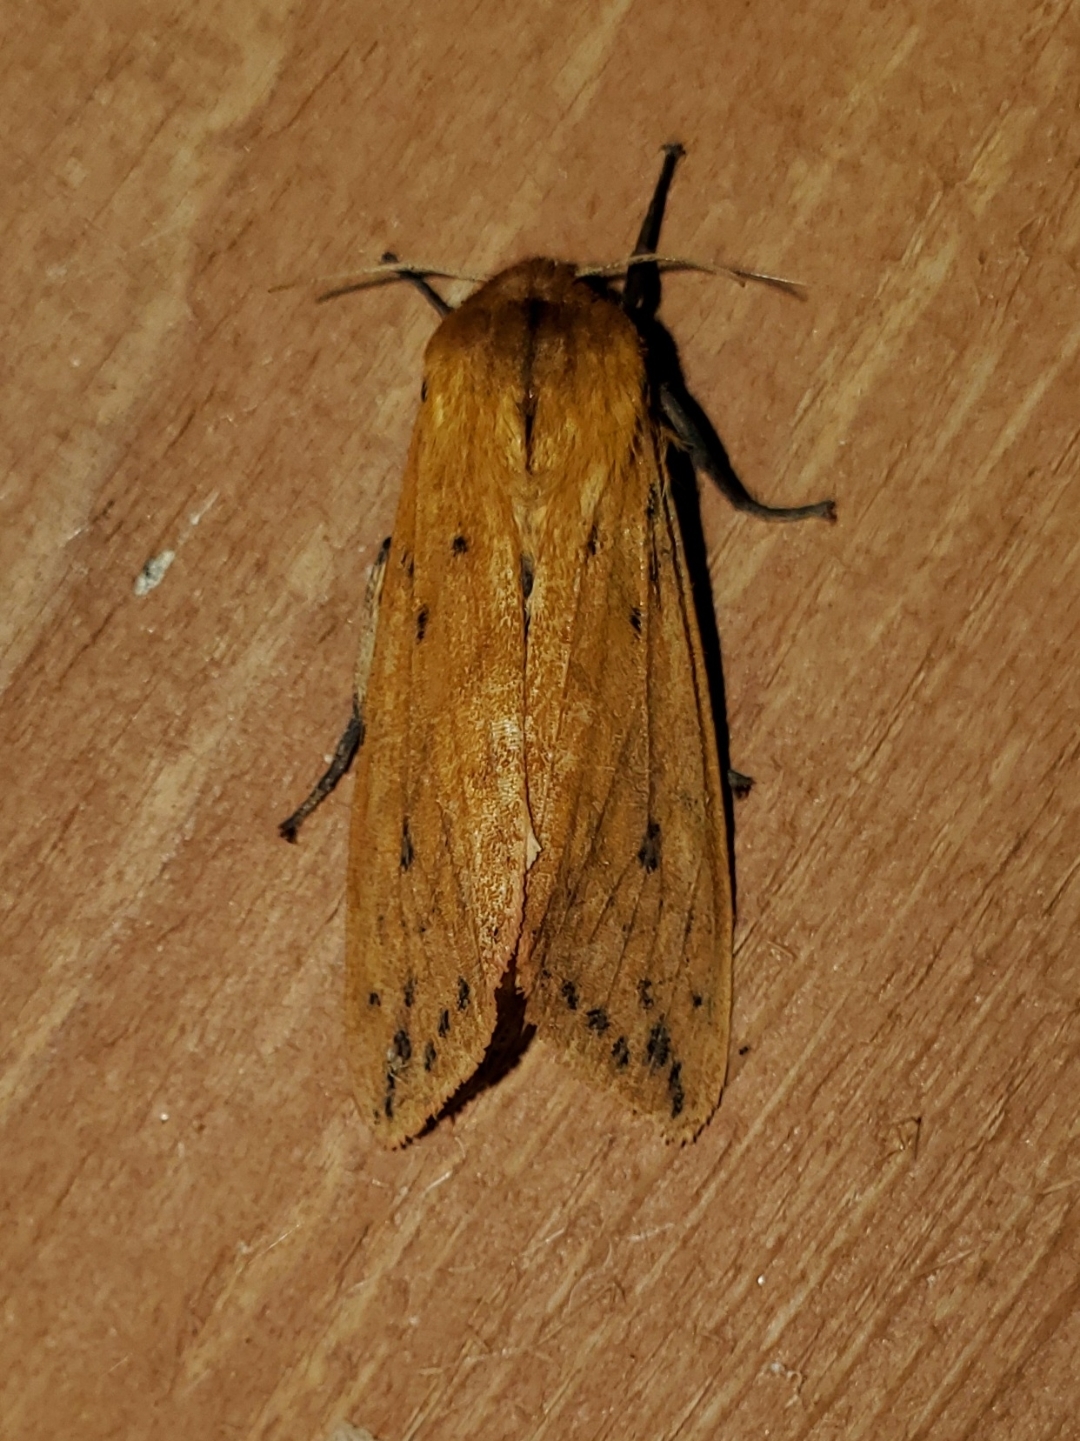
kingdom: Animalia
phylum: Arthropoda
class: Insecta
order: Lepidoptera
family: Erebidae
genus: Pyrrharctia
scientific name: Pyrrharctia isabella
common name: Isabella tiger moth
